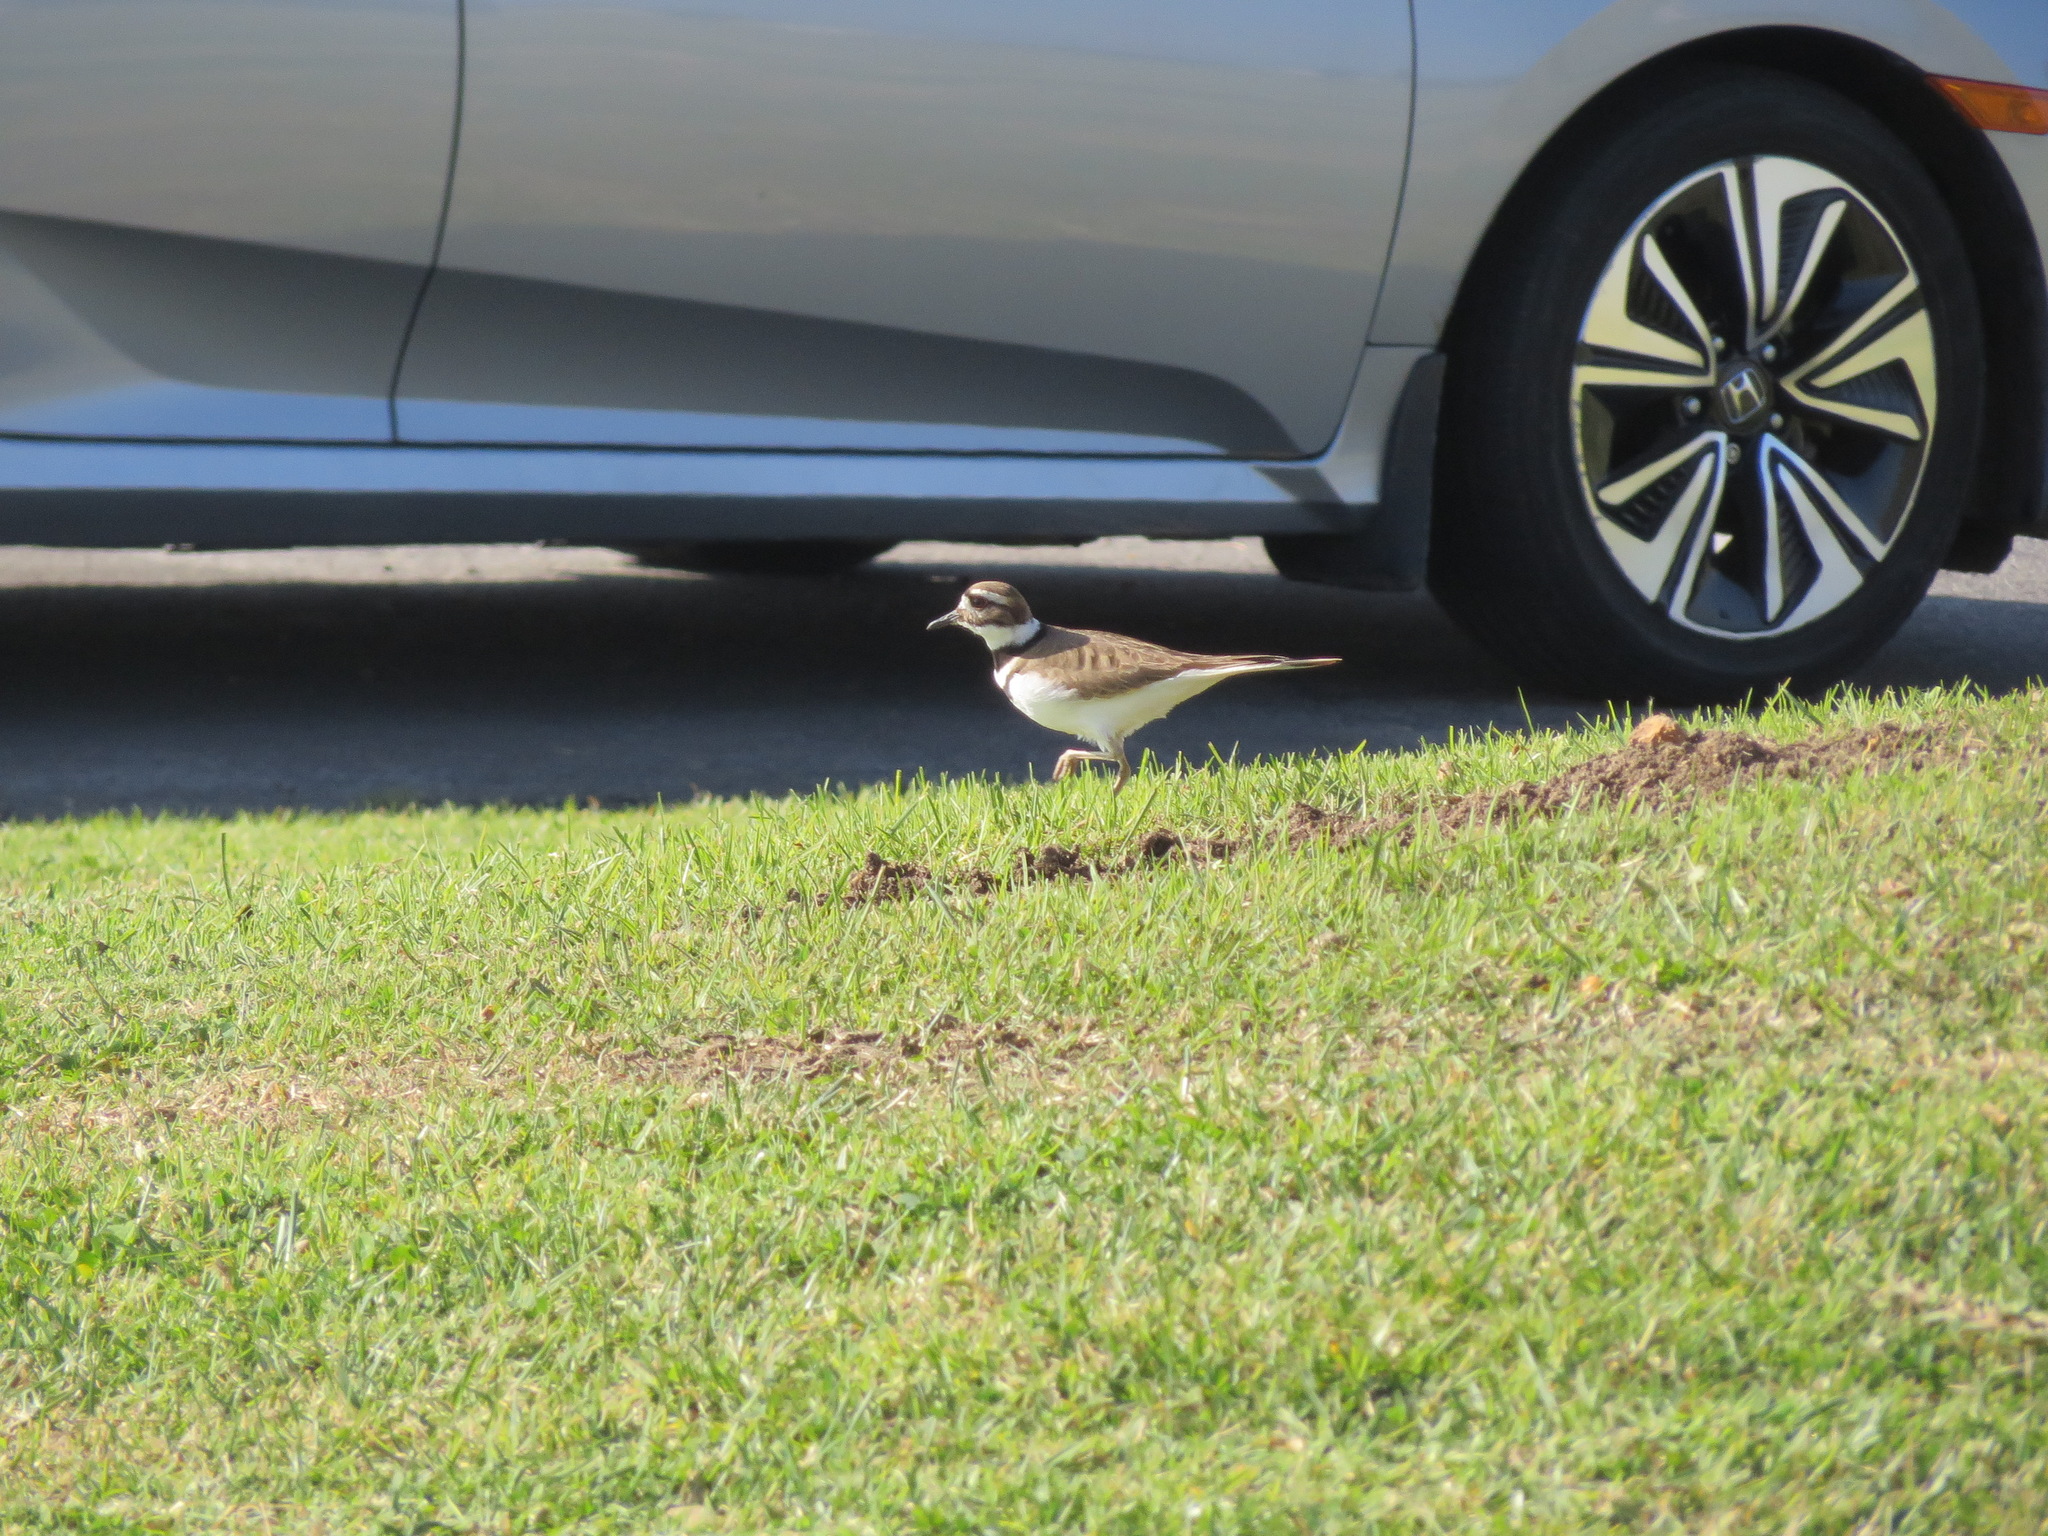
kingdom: Animalia
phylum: Chordata
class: Aves
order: Charadriiformes
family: Charadriidae
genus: Charadrius
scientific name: Charadrius vociferus
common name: Killdeer
